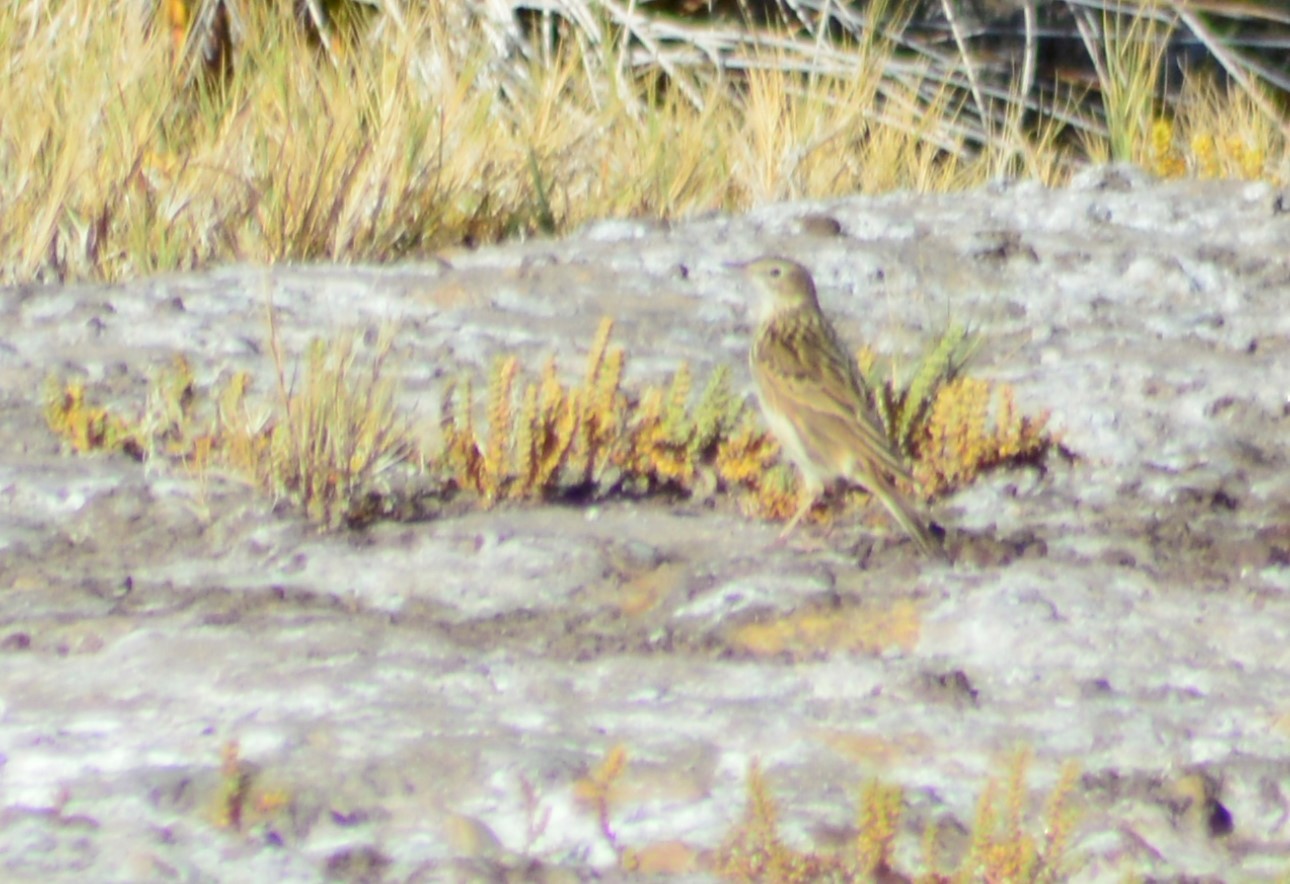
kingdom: Animalia
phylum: Chordata
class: Aves
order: Passeriformes
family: Motacillidae
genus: Anthus
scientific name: Anthus hellmayri
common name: Hellmayr's pipit
